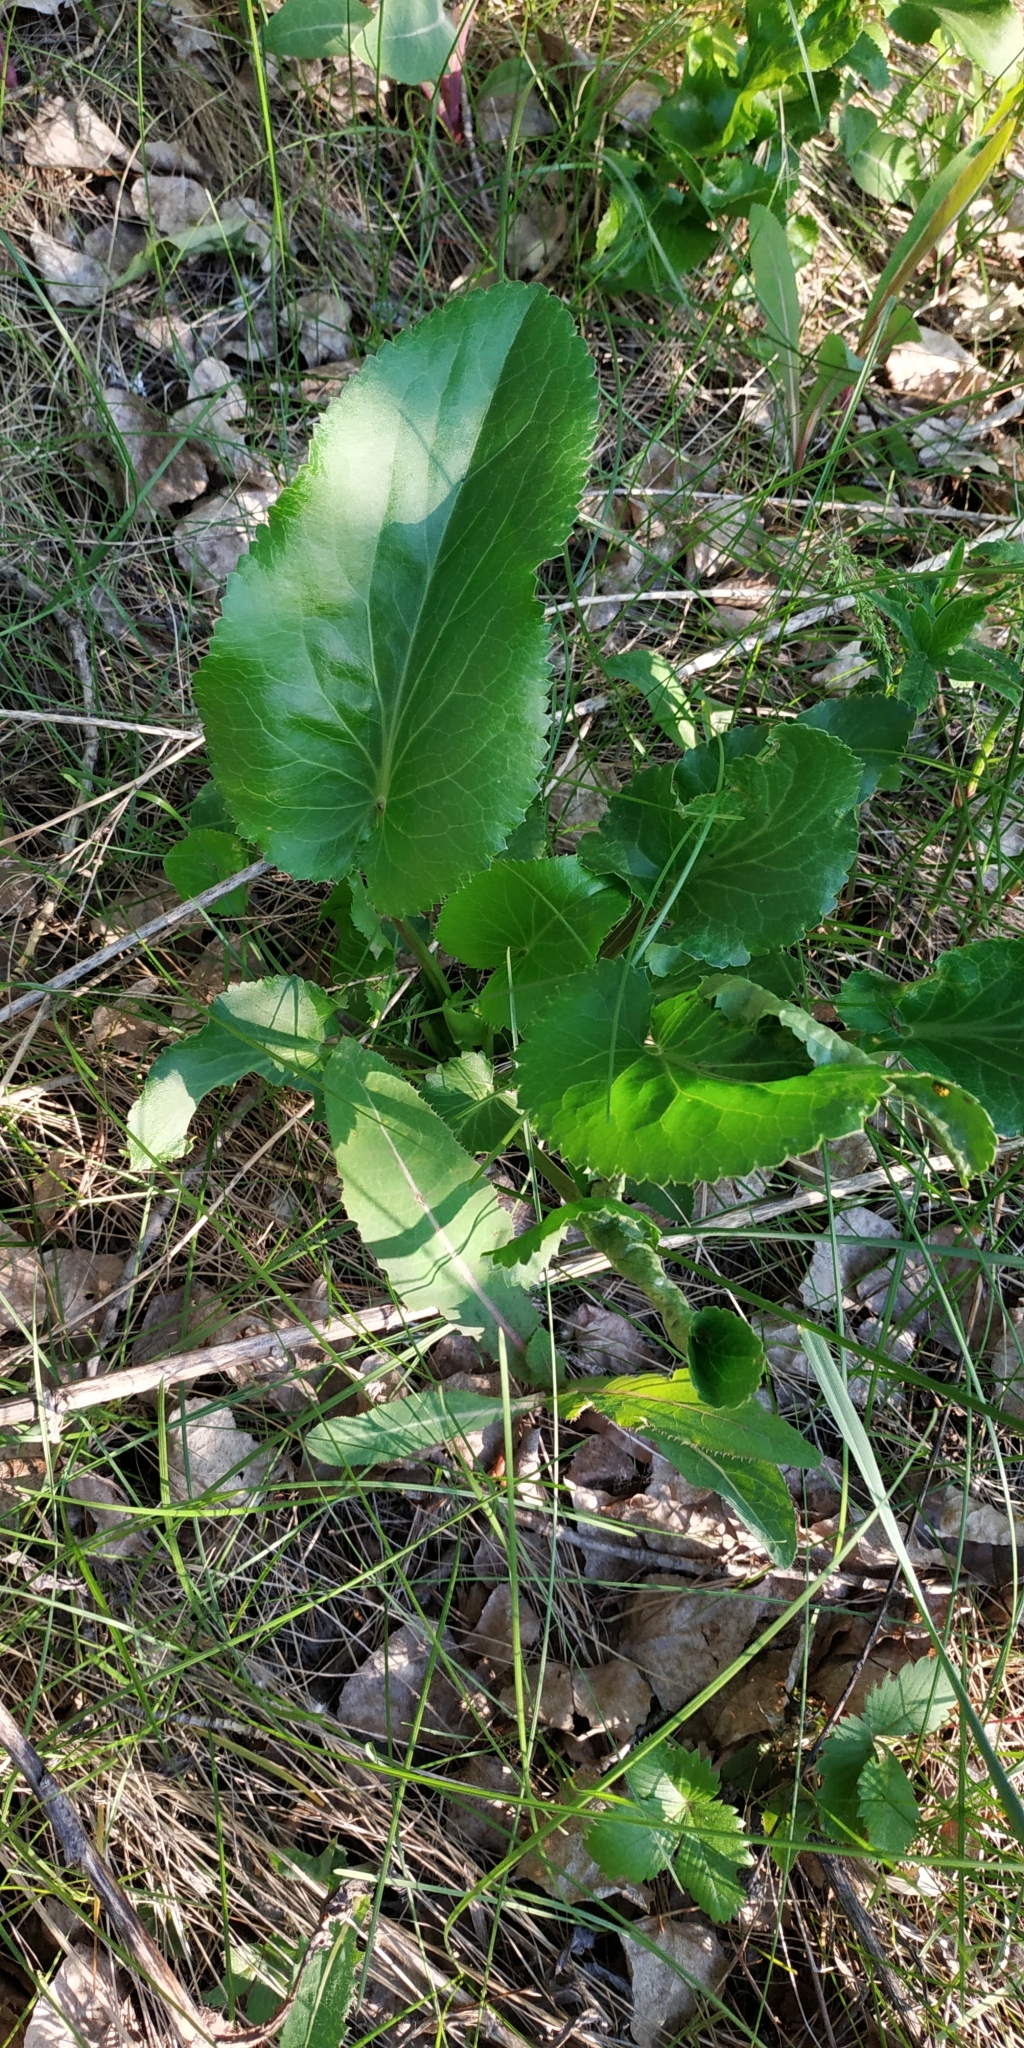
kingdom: Plantae
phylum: Tracheophyta
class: Magnoliopsida
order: Apiales
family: Apiaceae
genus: Eryngium
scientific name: Eryngium planum
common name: Blue eryngo
